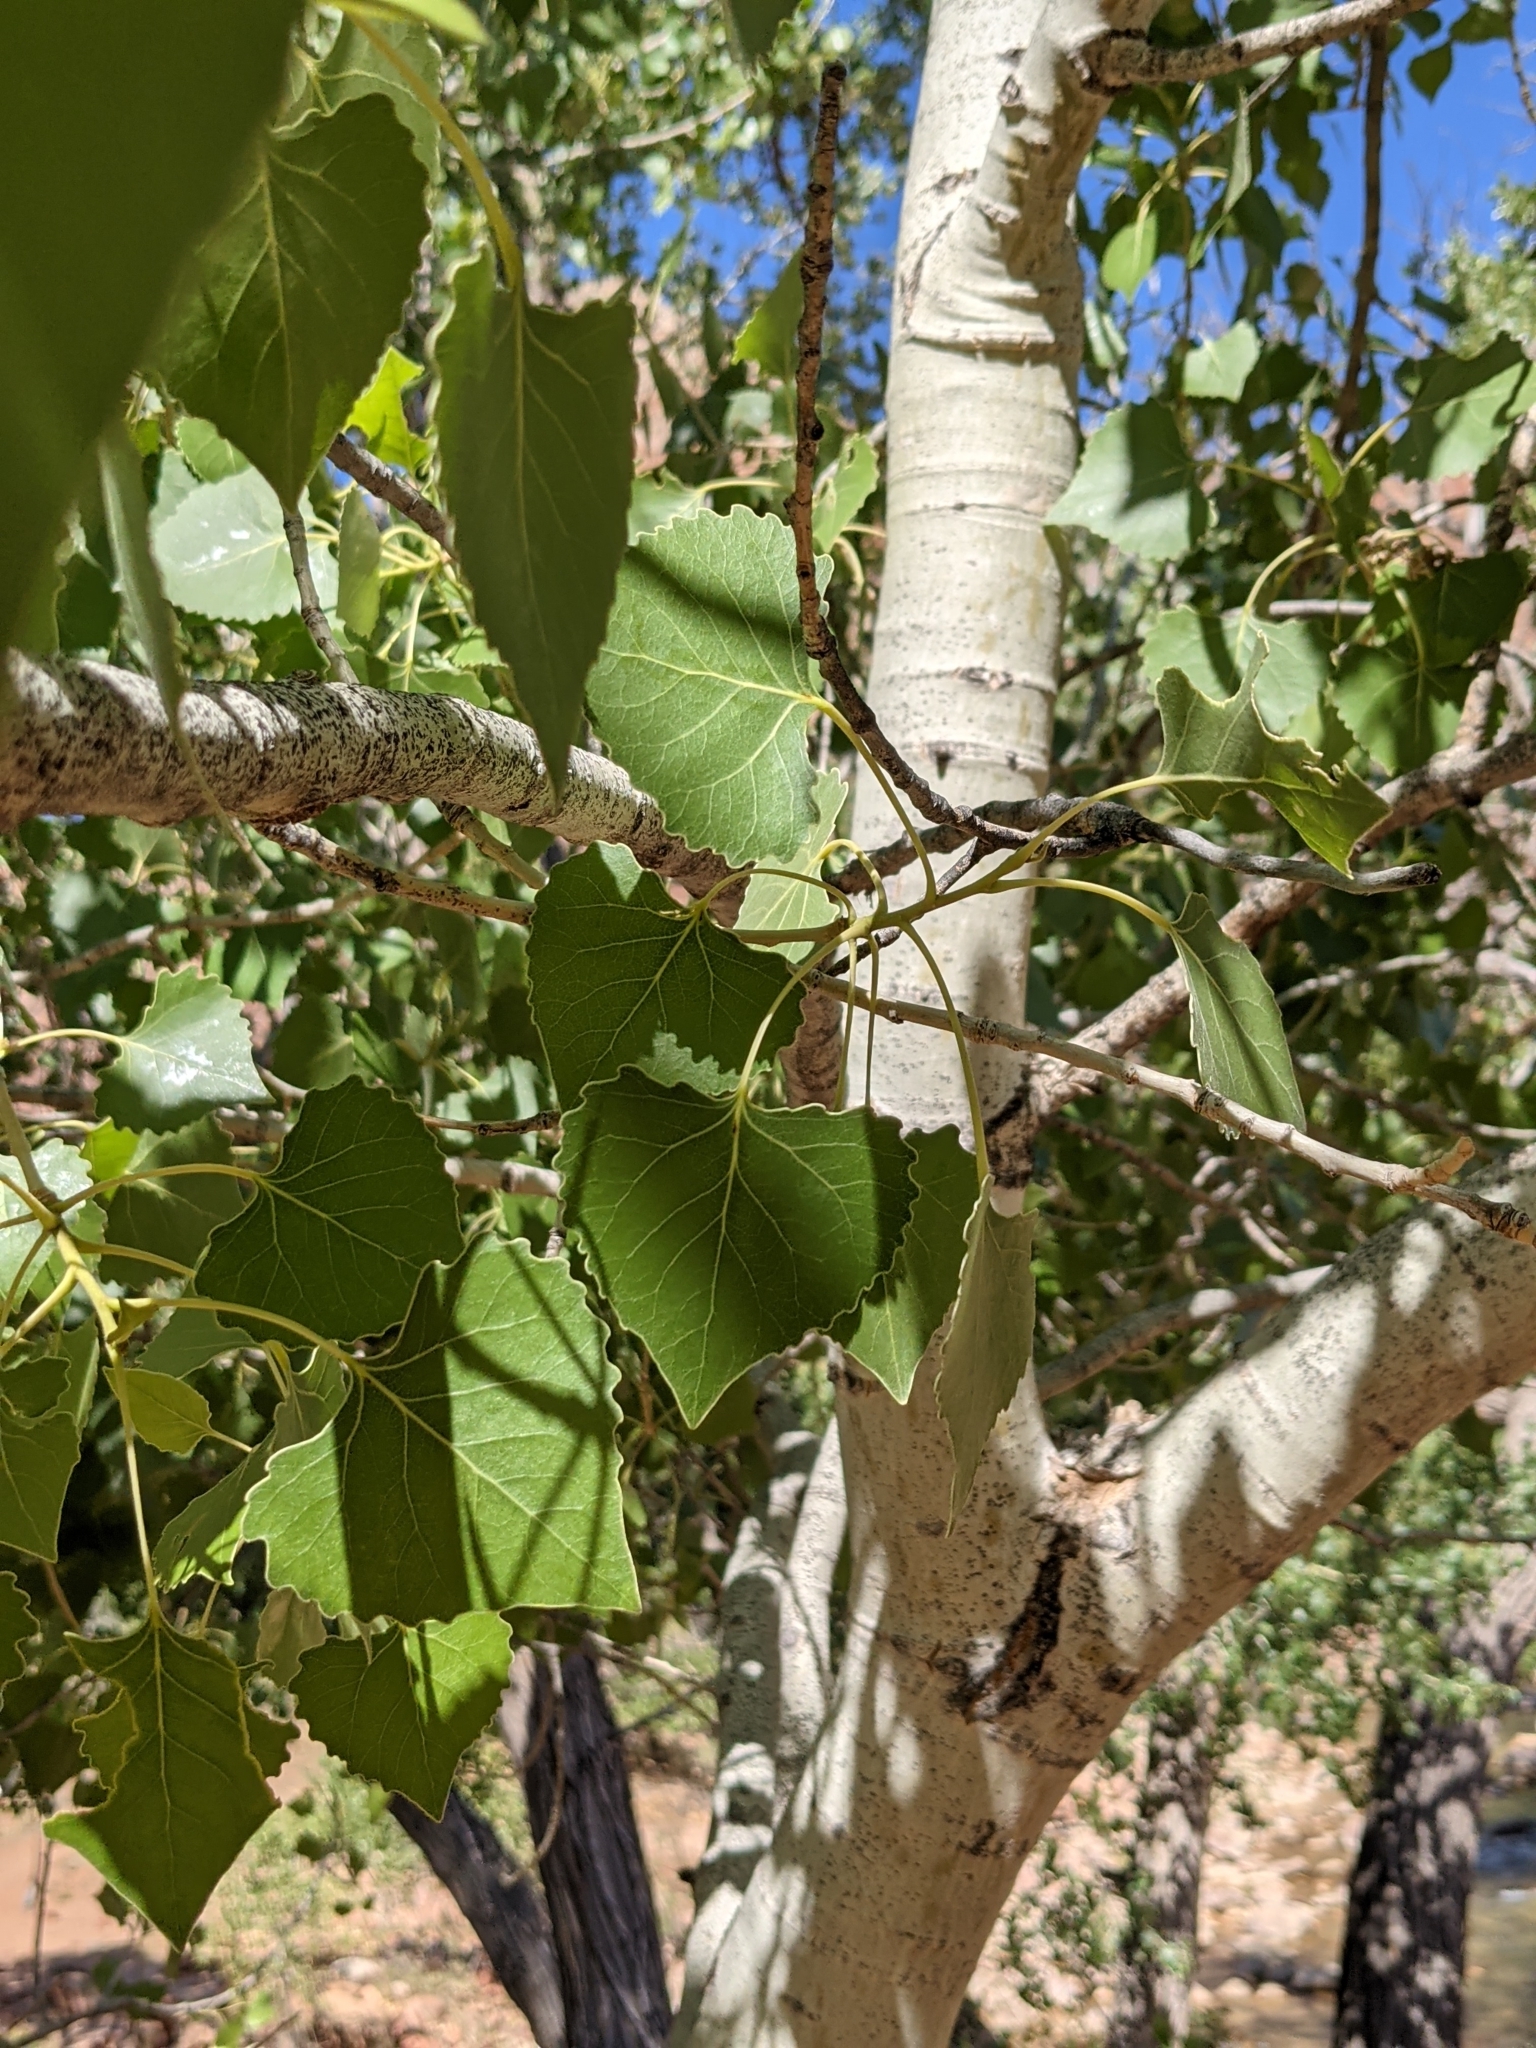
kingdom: Plantae
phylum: Tracheophyta
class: Magnoliopsida
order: Malpighiales
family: Salicaceae
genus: Populus
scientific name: Populus fremontii
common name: Fremont's cottonwood
